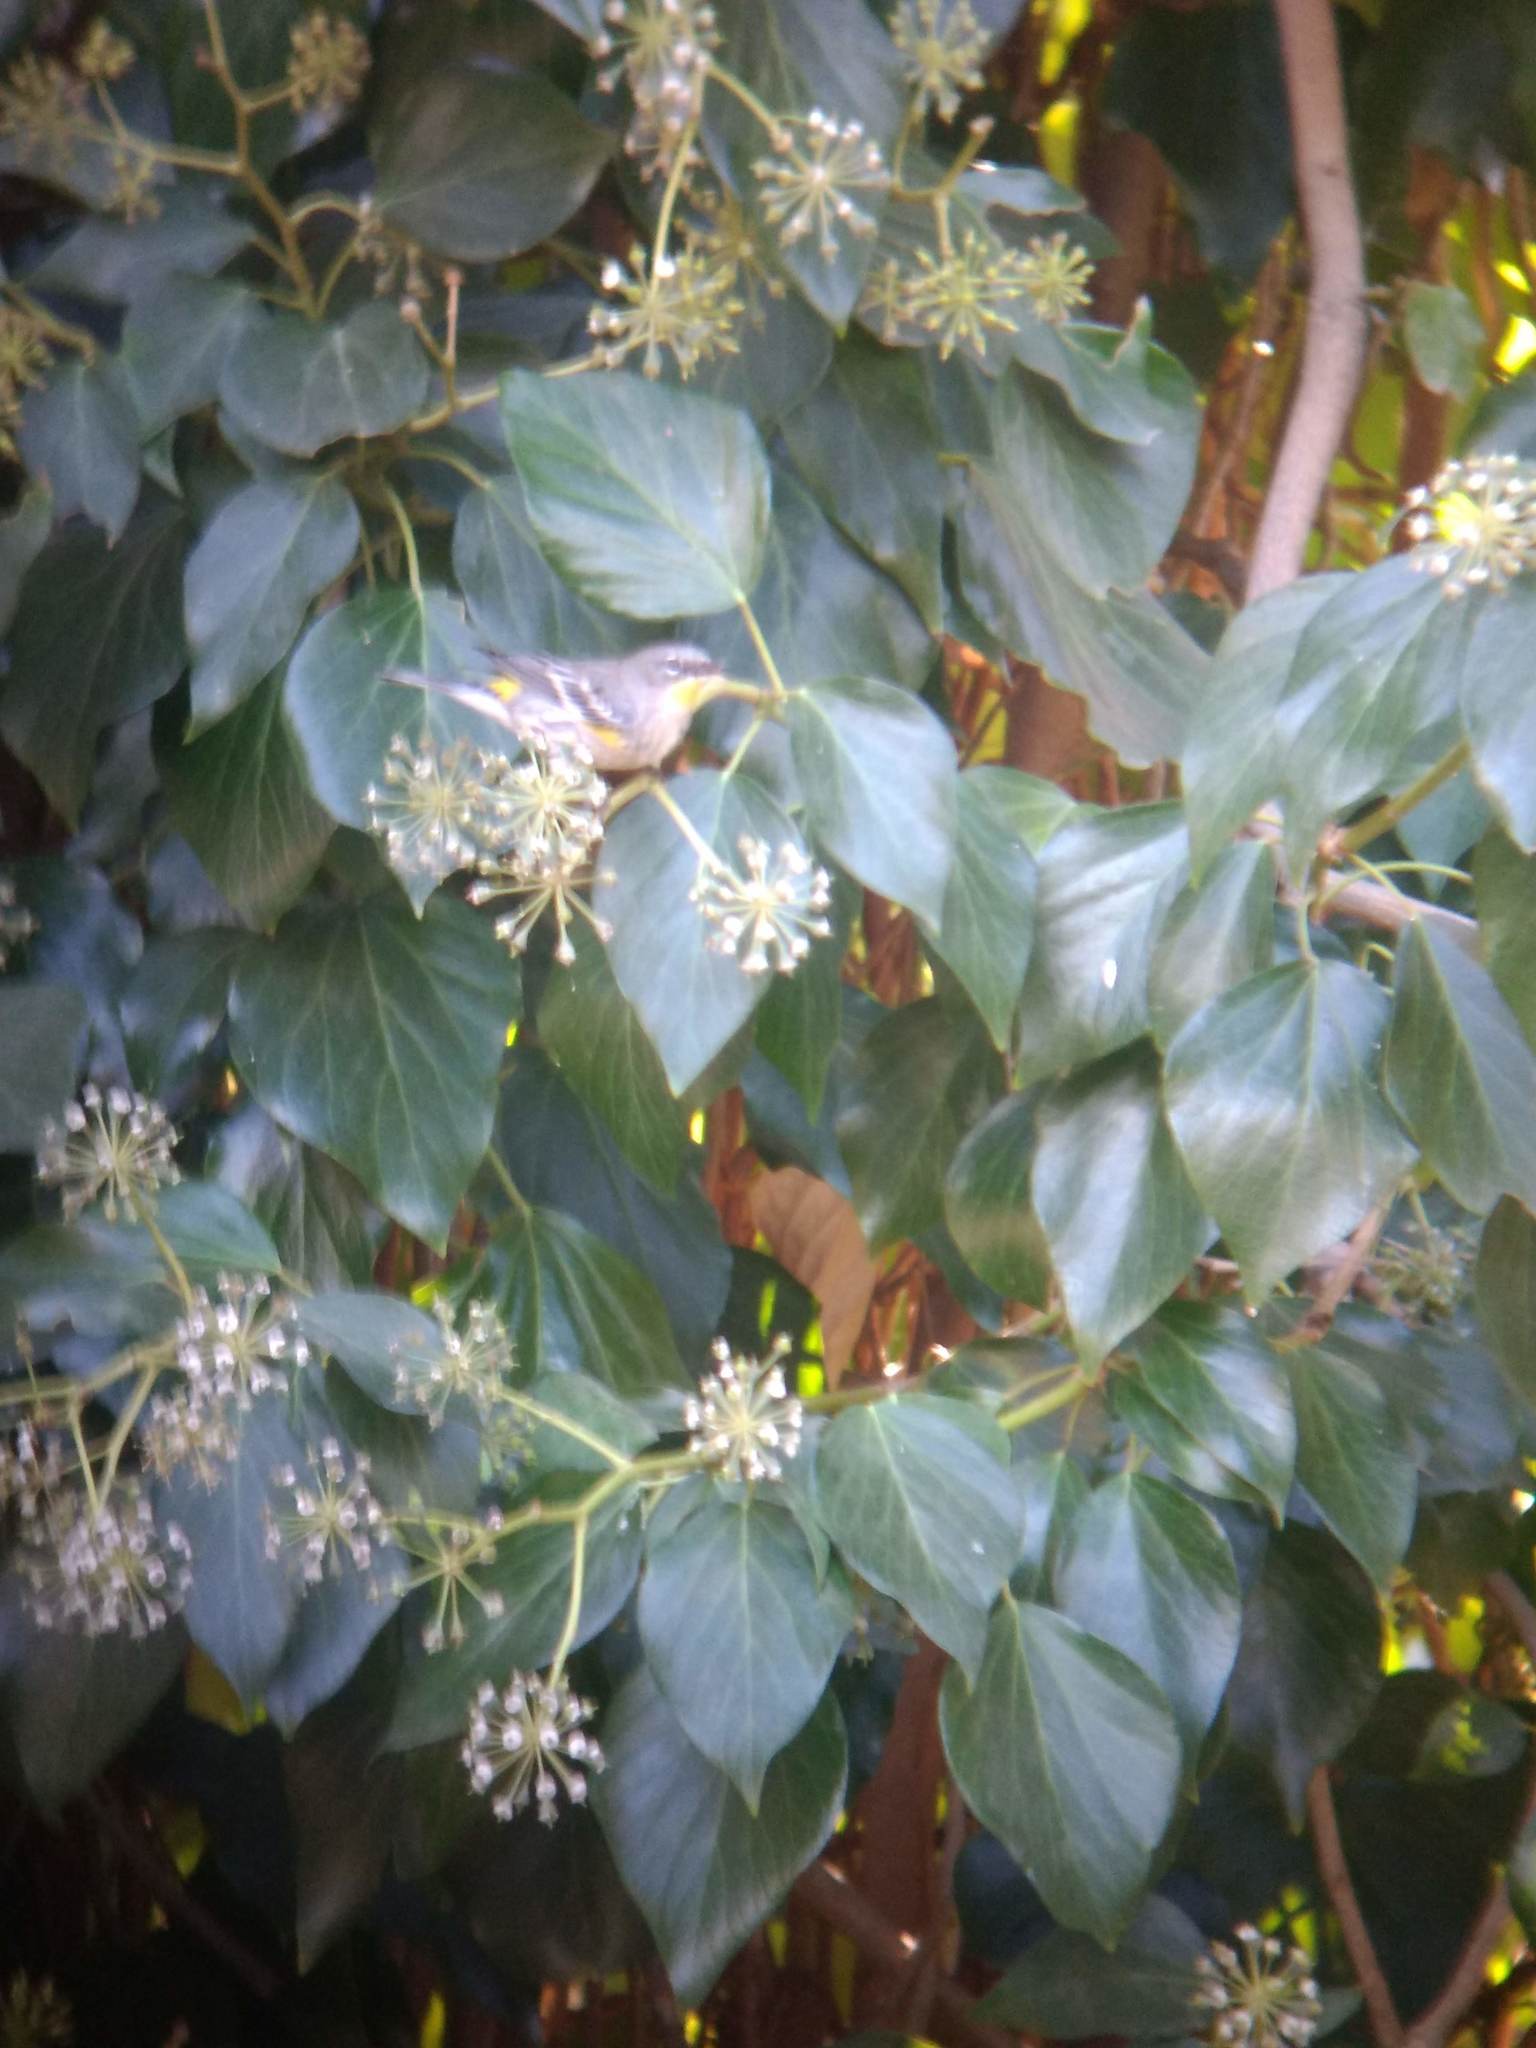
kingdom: Animalia
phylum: Chordata
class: Aves
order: Passeriformes
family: Parulidae
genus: Setophaga
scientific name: Setophaga coronata
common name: Myrtle warbler
